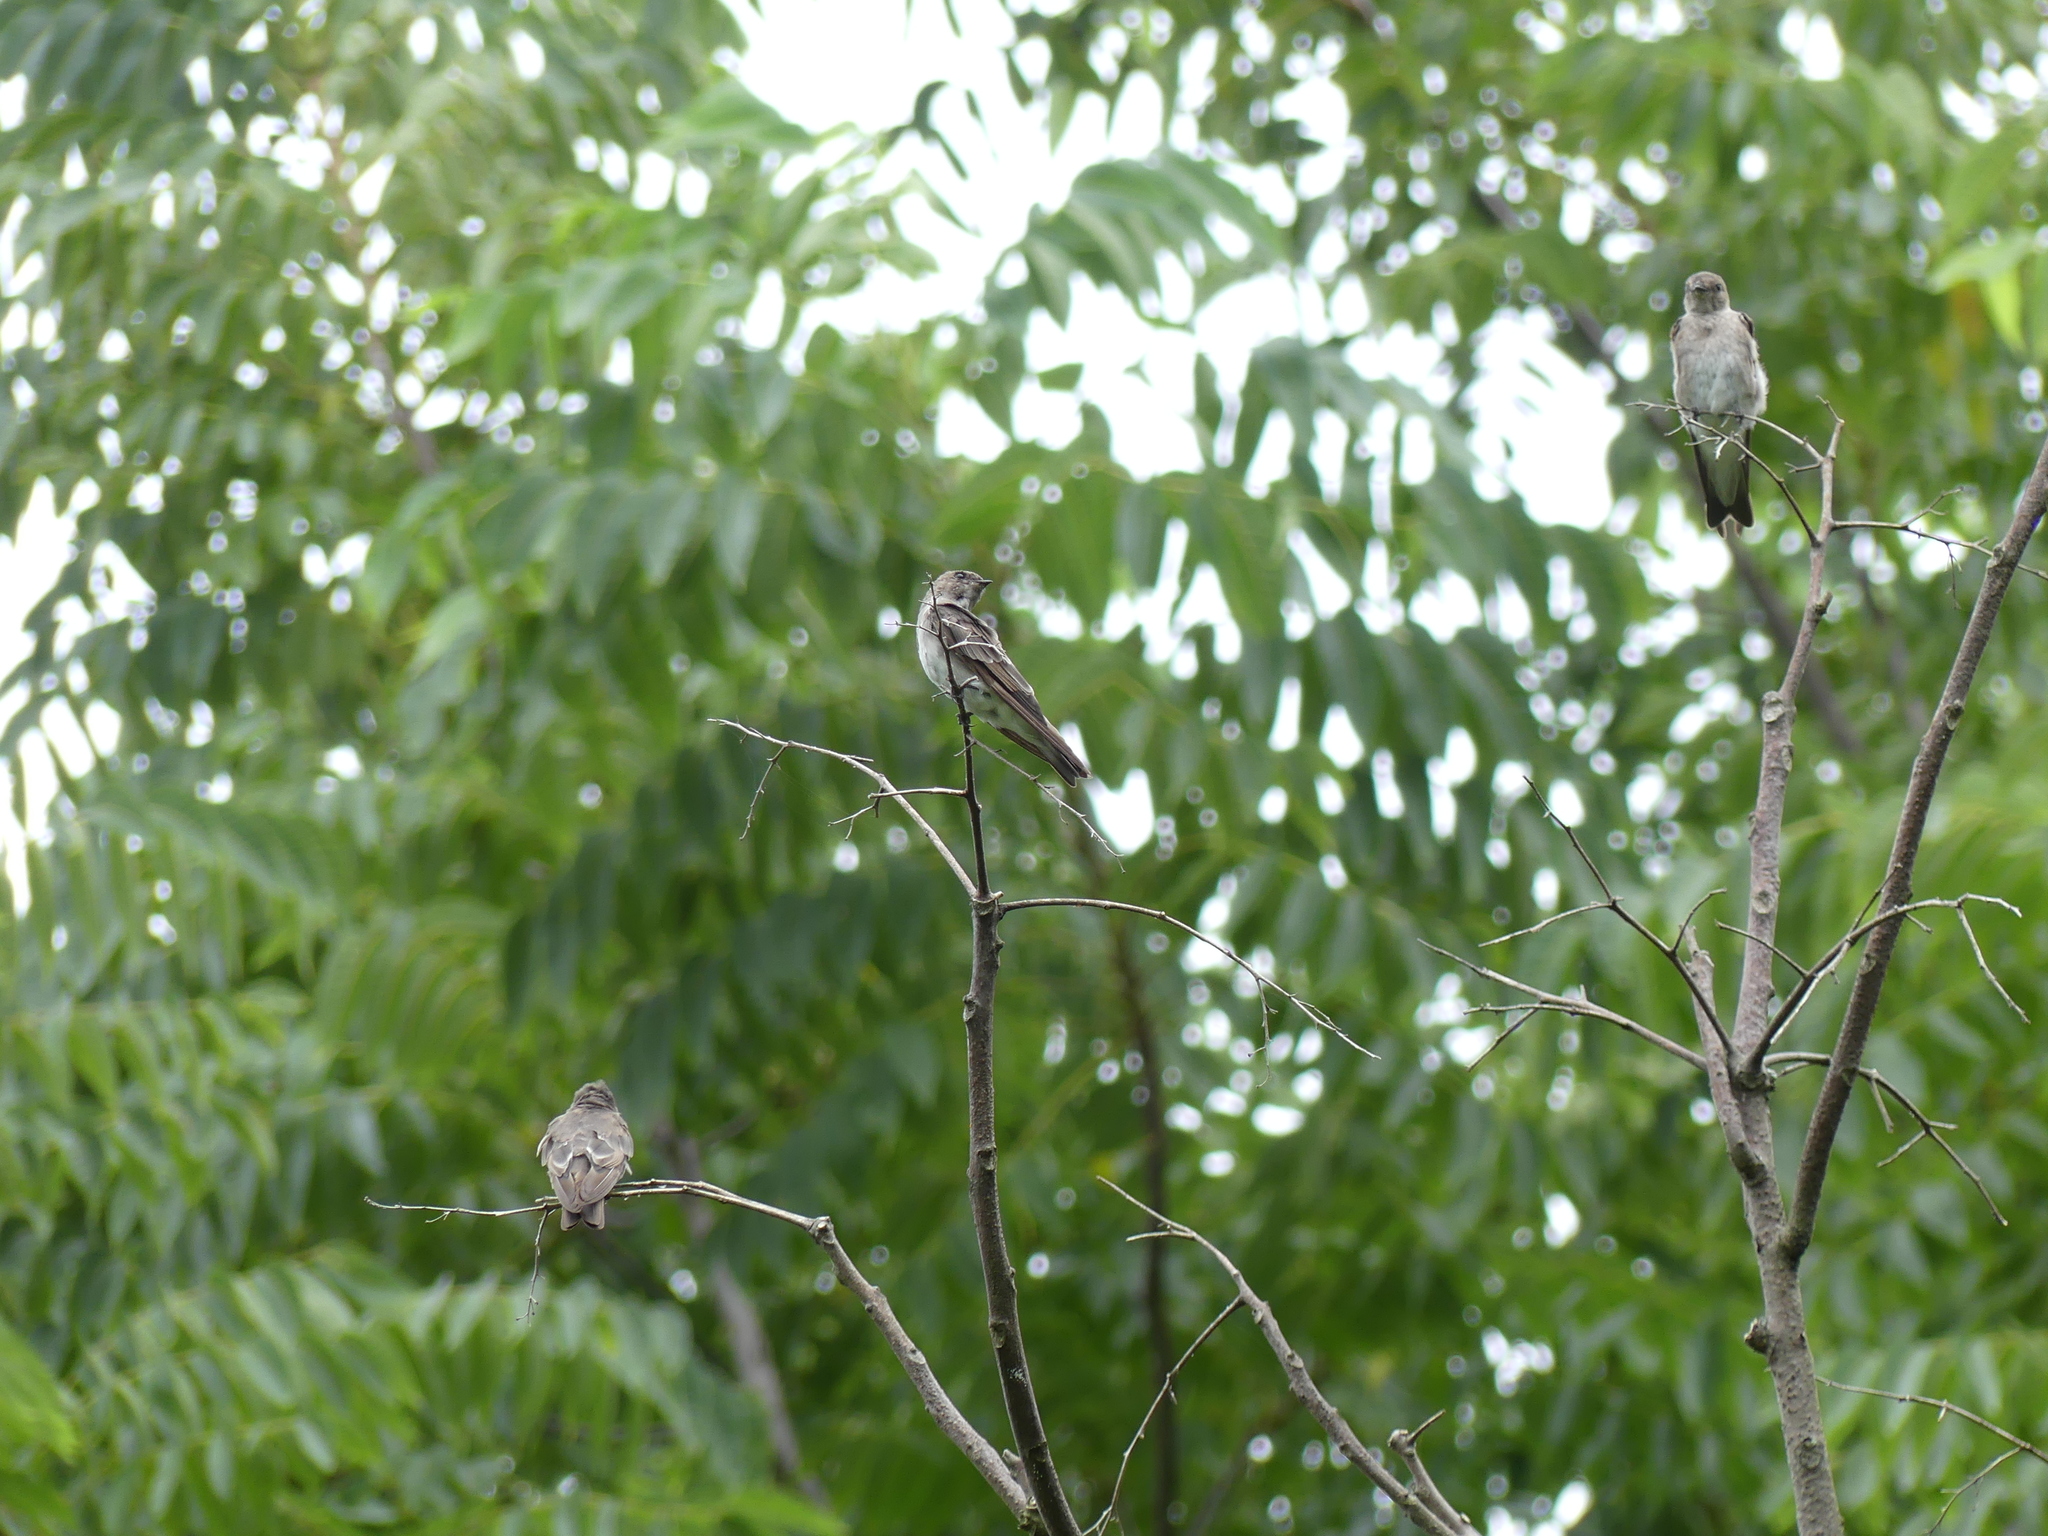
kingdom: Animalia
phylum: Chordata
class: Aves
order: Passeriformes
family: Hirundinidae
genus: Stelgidopteryx
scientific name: Stelgidopteryx serripennis
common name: Northern rough-winged swallow
